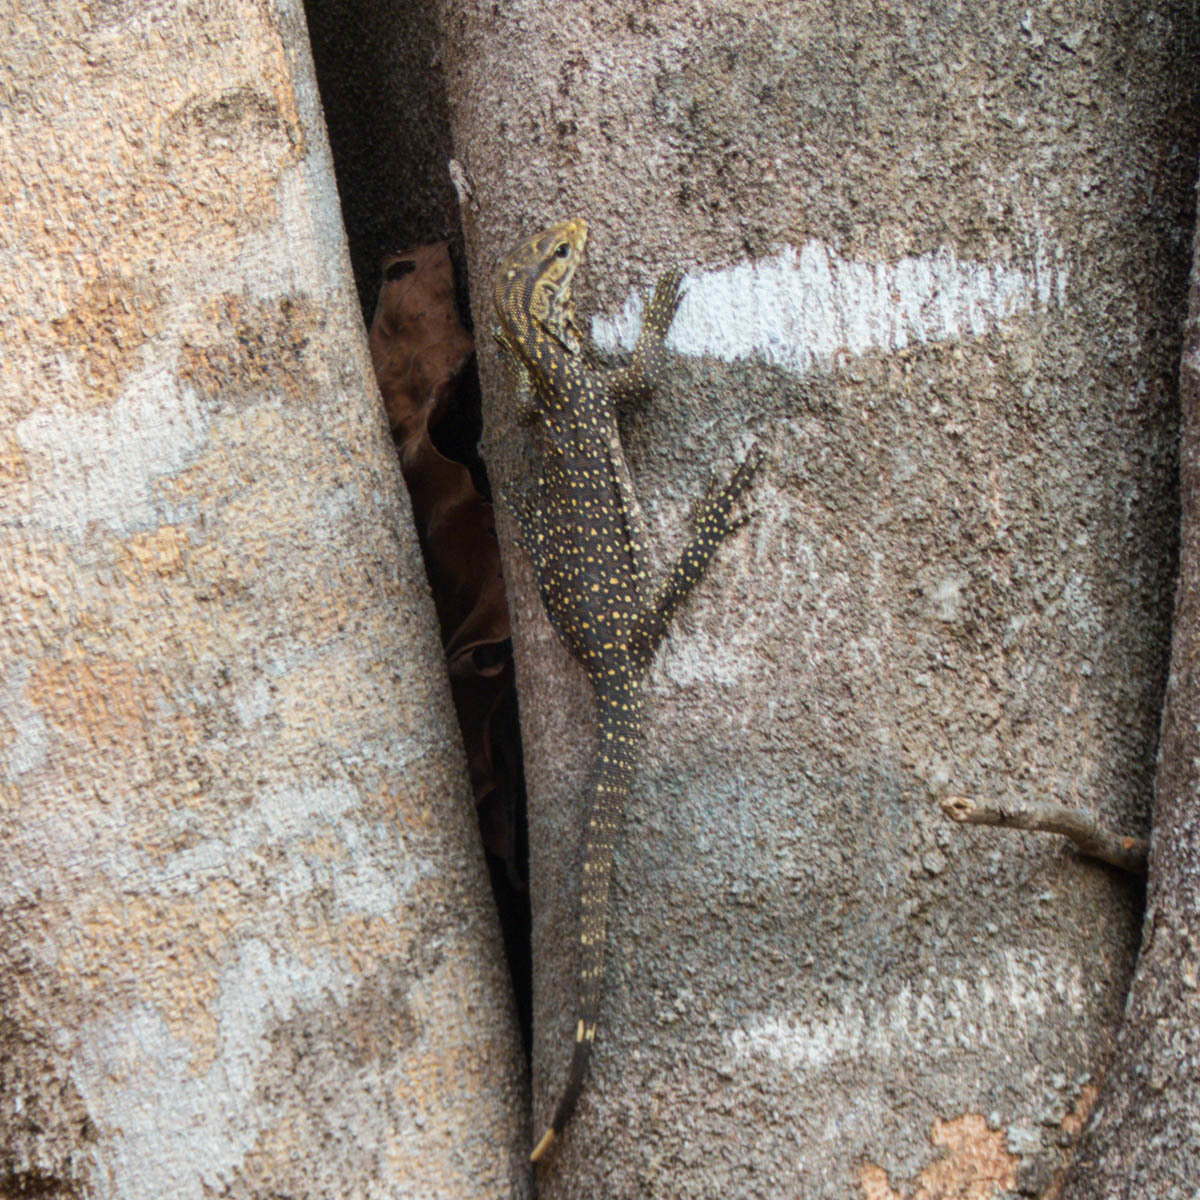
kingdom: Animalia
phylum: Chordata
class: Squamata
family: Varanidae
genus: Varanus
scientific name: Varanus nebulosus
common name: Clouded monitor
